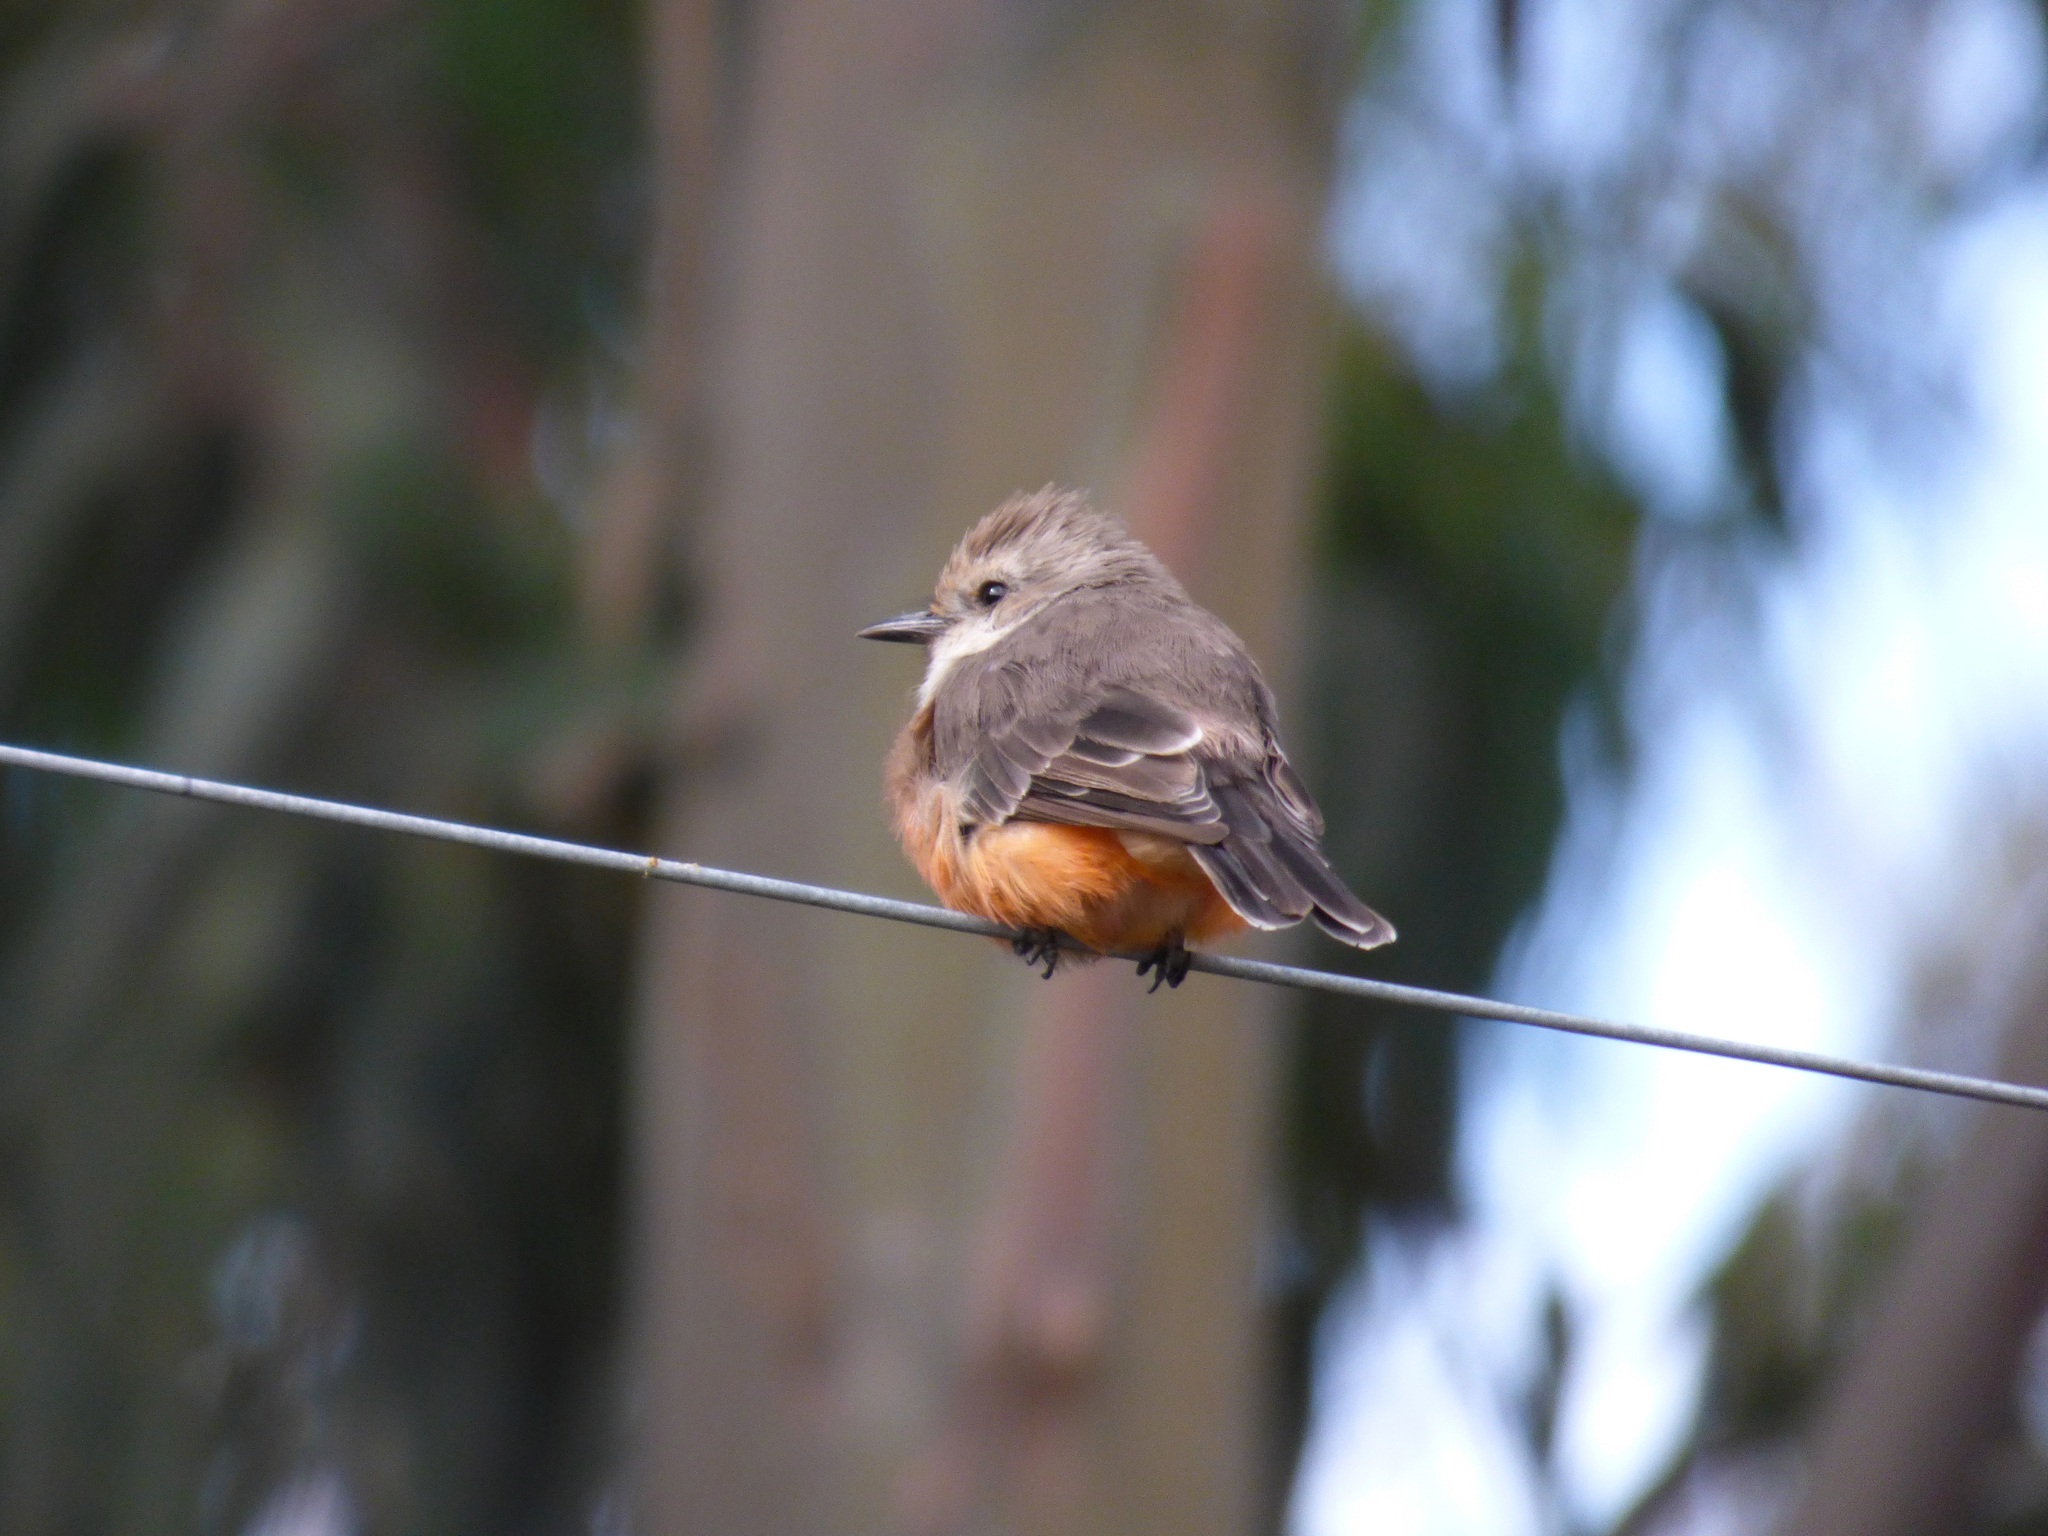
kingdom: Animalia
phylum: Chordata
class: Aves
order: Passeriformes
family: Tyrannidae
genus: Pyrocephalus
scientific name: Pyrocephalus rubinus
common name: Vermilion flycatcher
